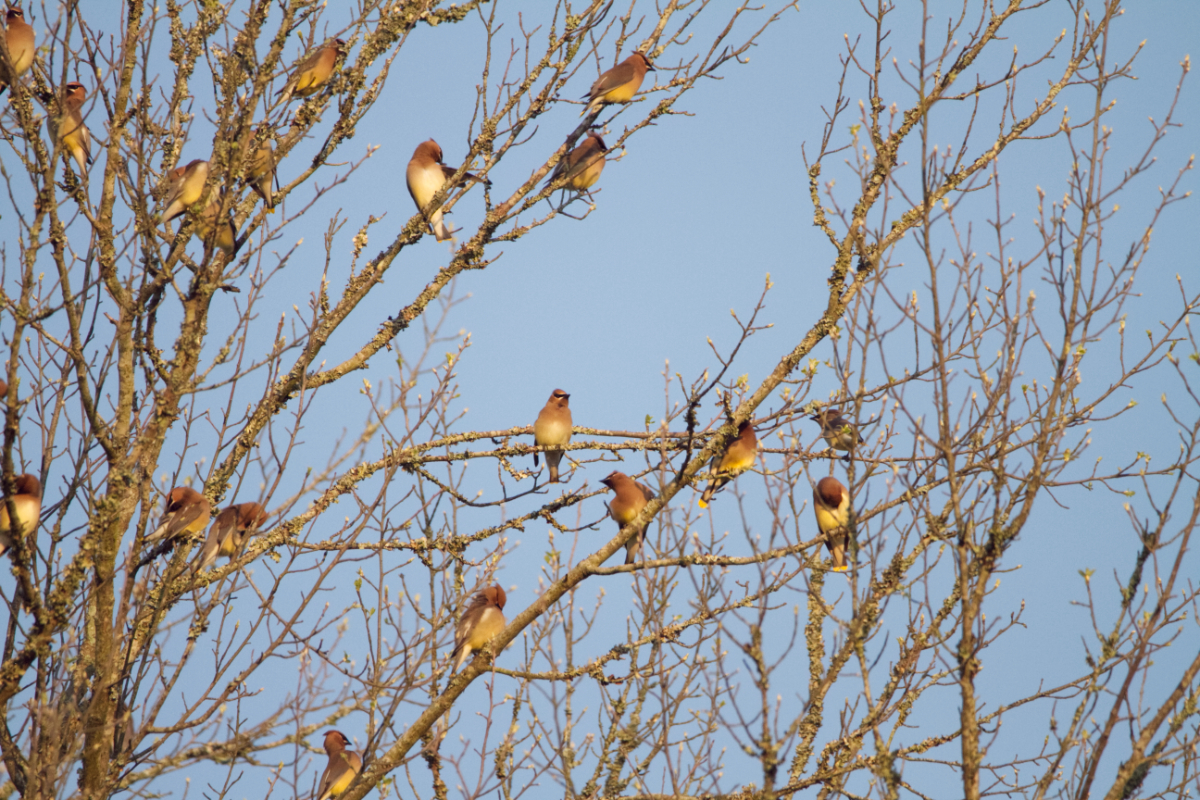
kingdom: Animalia
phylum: Chordata
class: Aves
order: Passeriformes
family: Bombycillidae
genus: Bombycilla
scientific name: Bombycilla cedrorum
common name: Cedar waxwing
